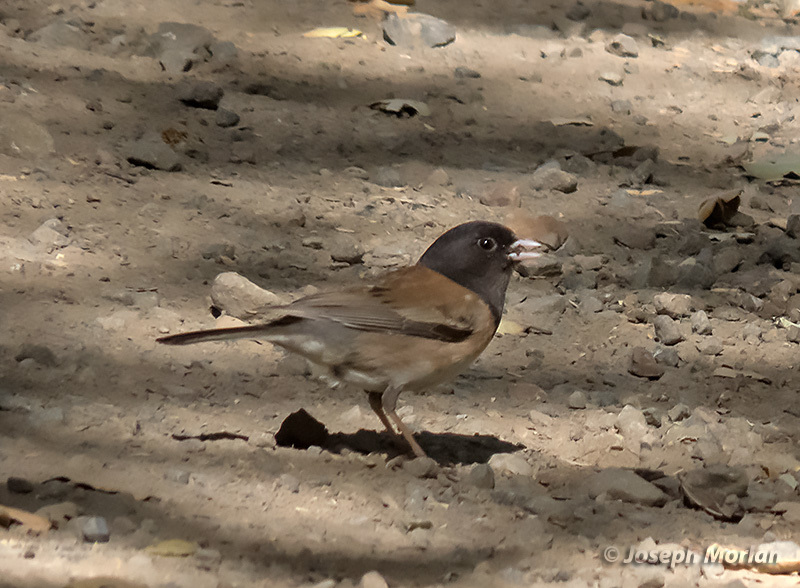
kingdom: Animalia
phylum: Chordata
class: Aves
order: Passeriformes
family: Passerellidae
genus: Junco
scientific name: Junco hyemalis
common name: Dark-eyed junco
